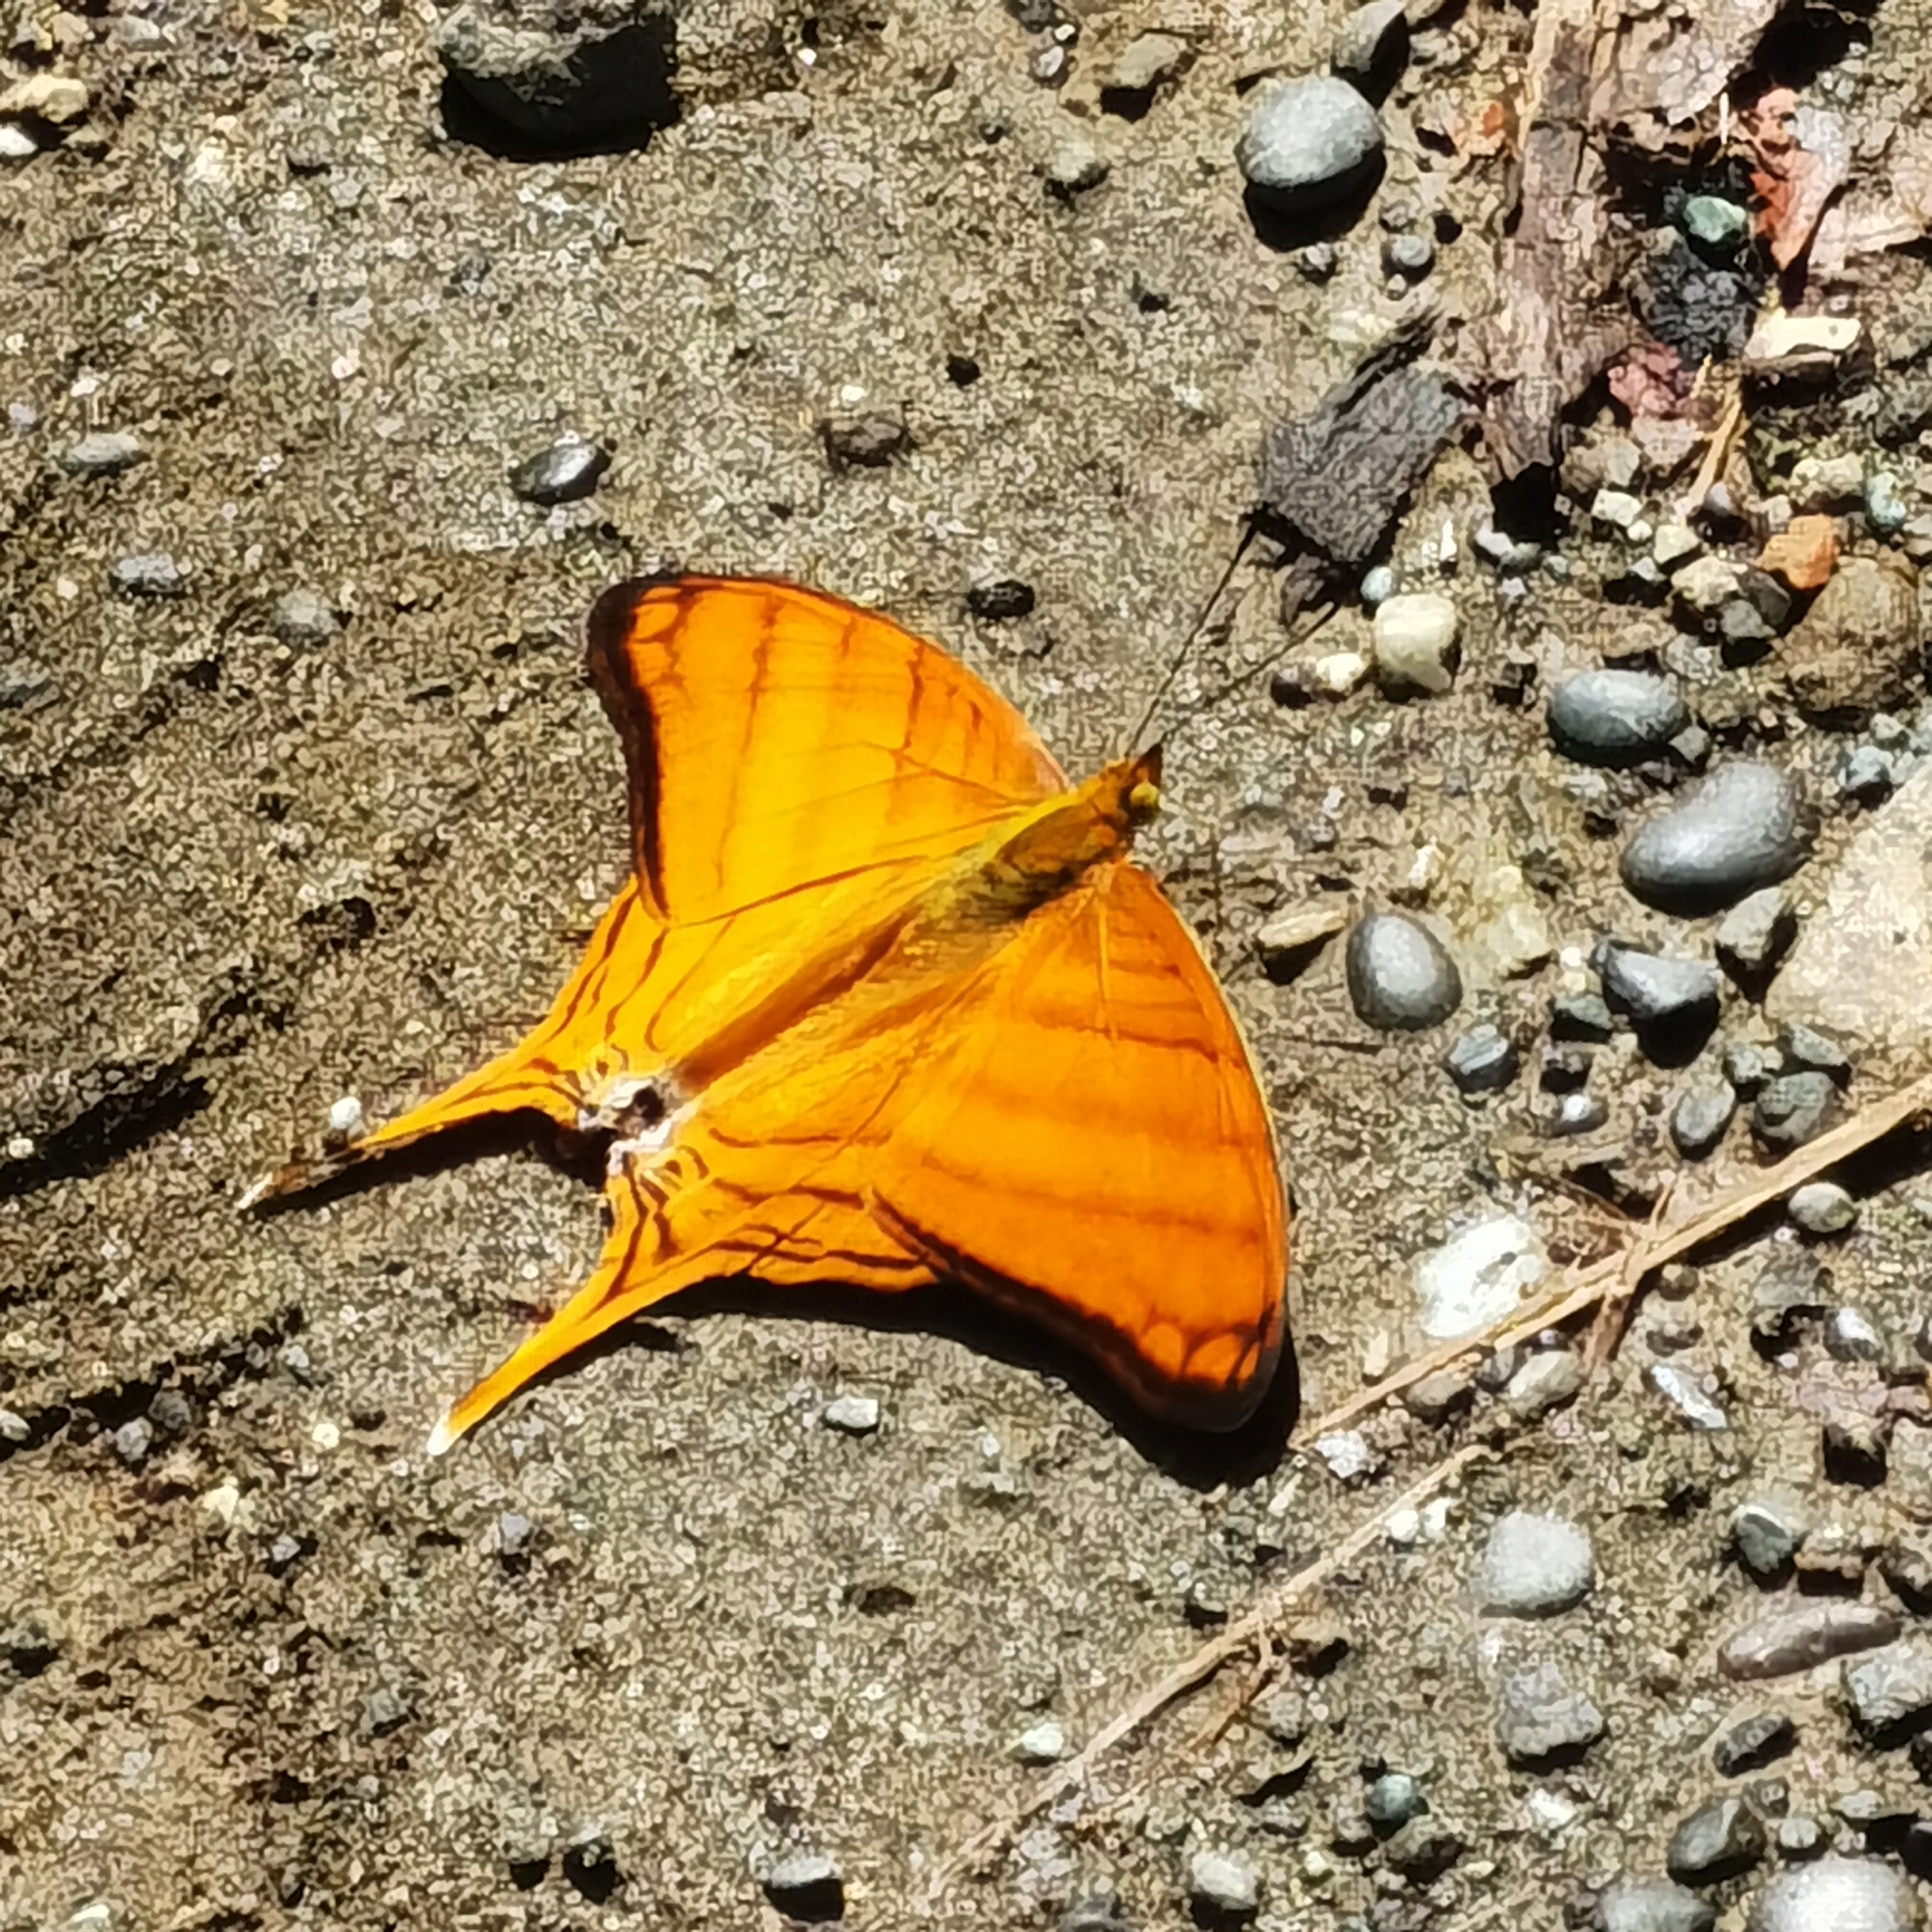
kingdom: Animalia
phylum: Arthropoda
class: Insecta
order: Lepidoptera
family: Nymphalidae
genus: Marpesia
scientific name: Marpesia berania
